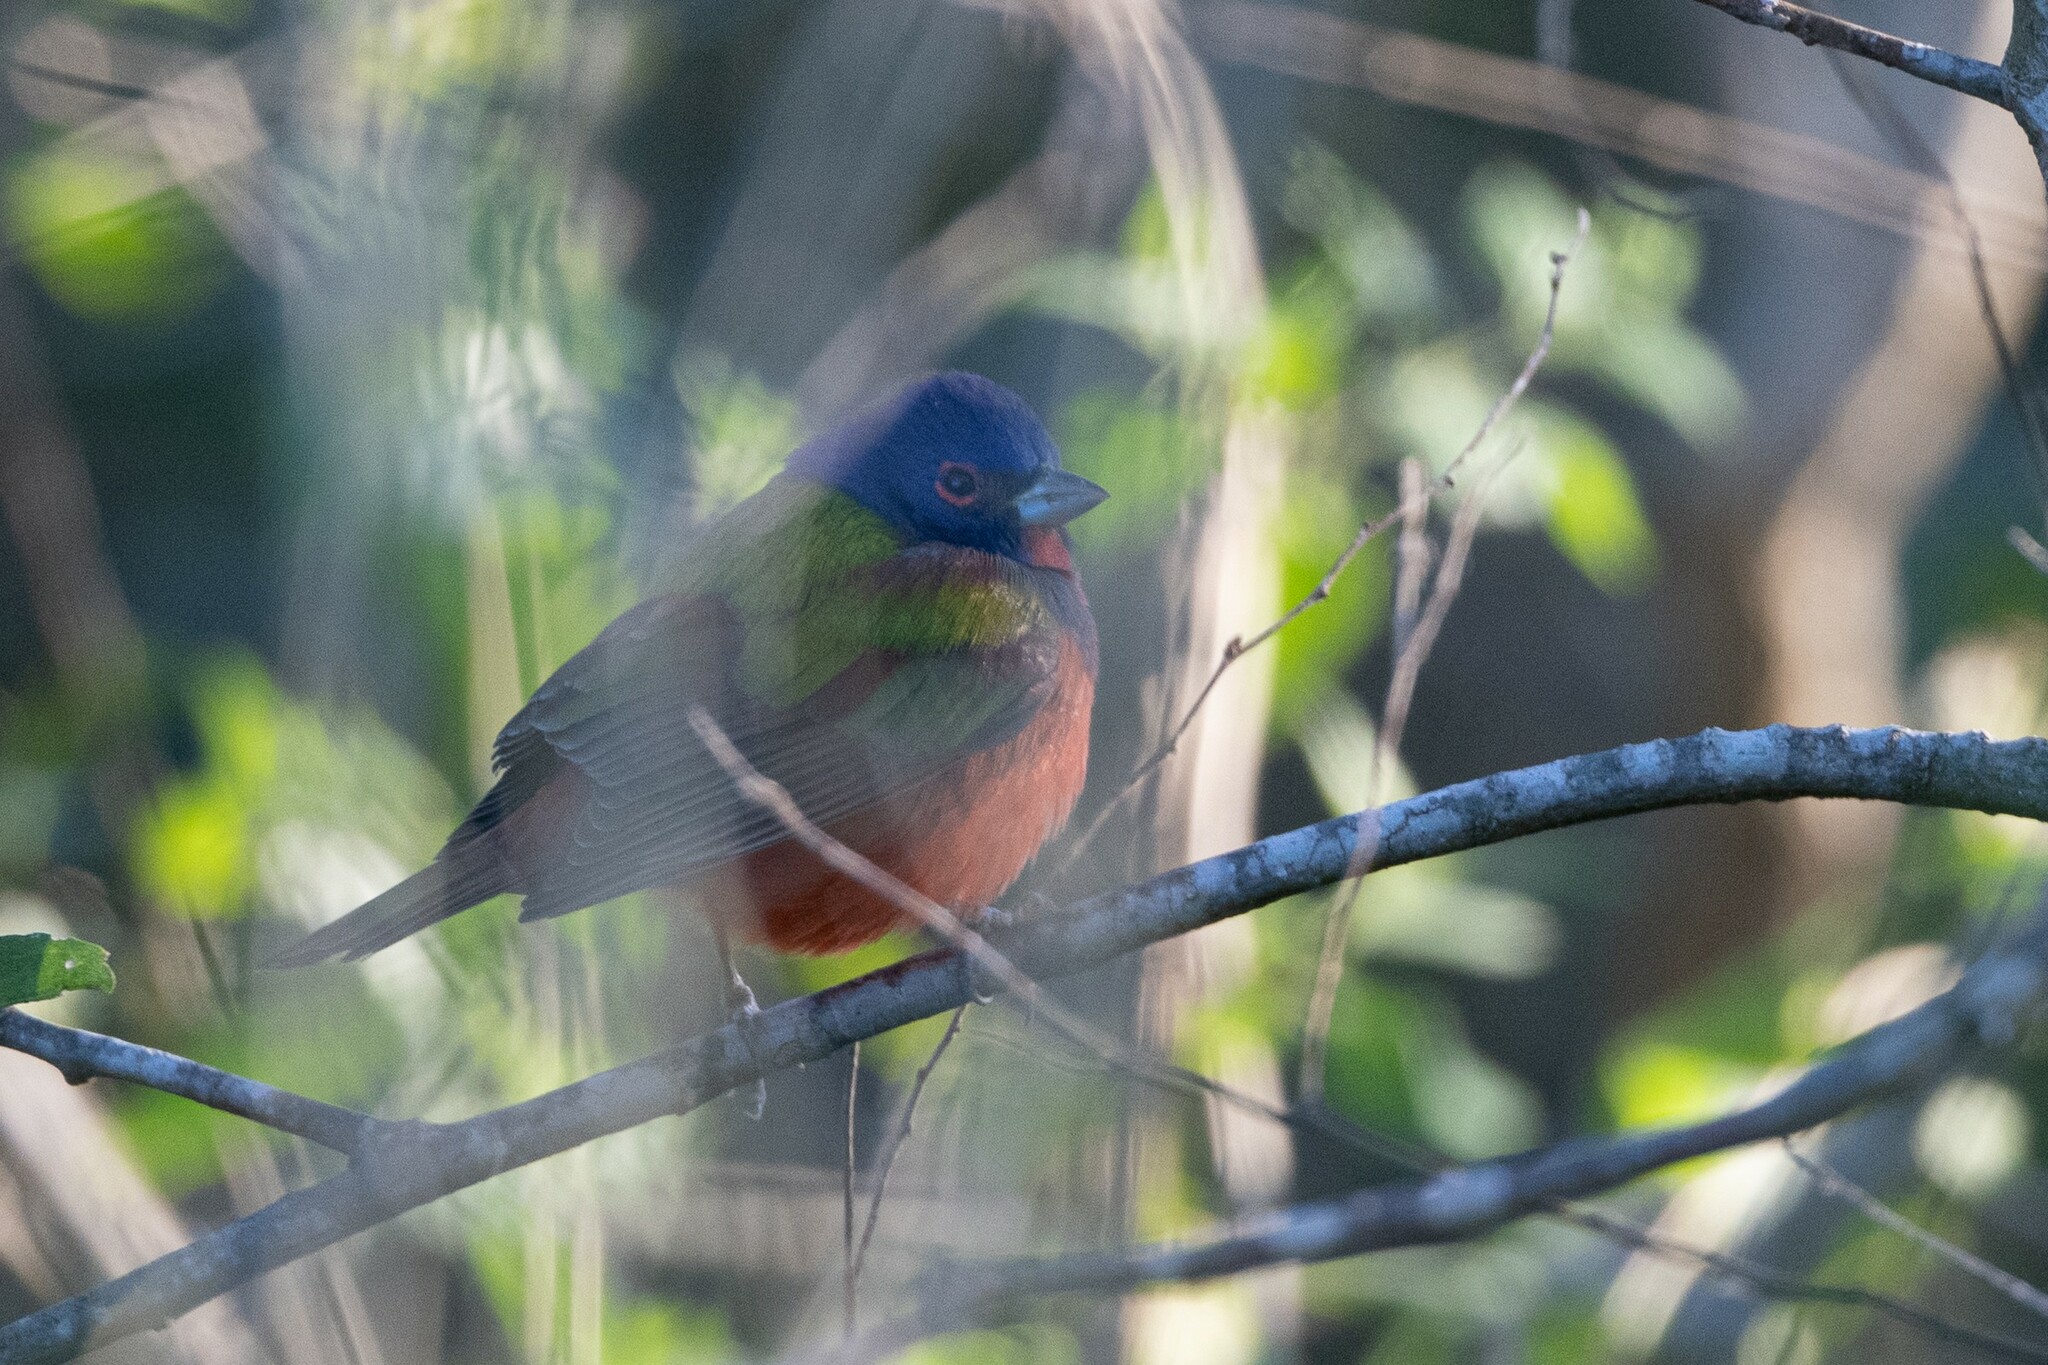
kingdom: Animalia
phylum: Chordata
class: Aves
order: Passeriformes
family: Cardinalidae
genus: Passerina
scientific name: Passerina ciris
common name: Painted bunting
